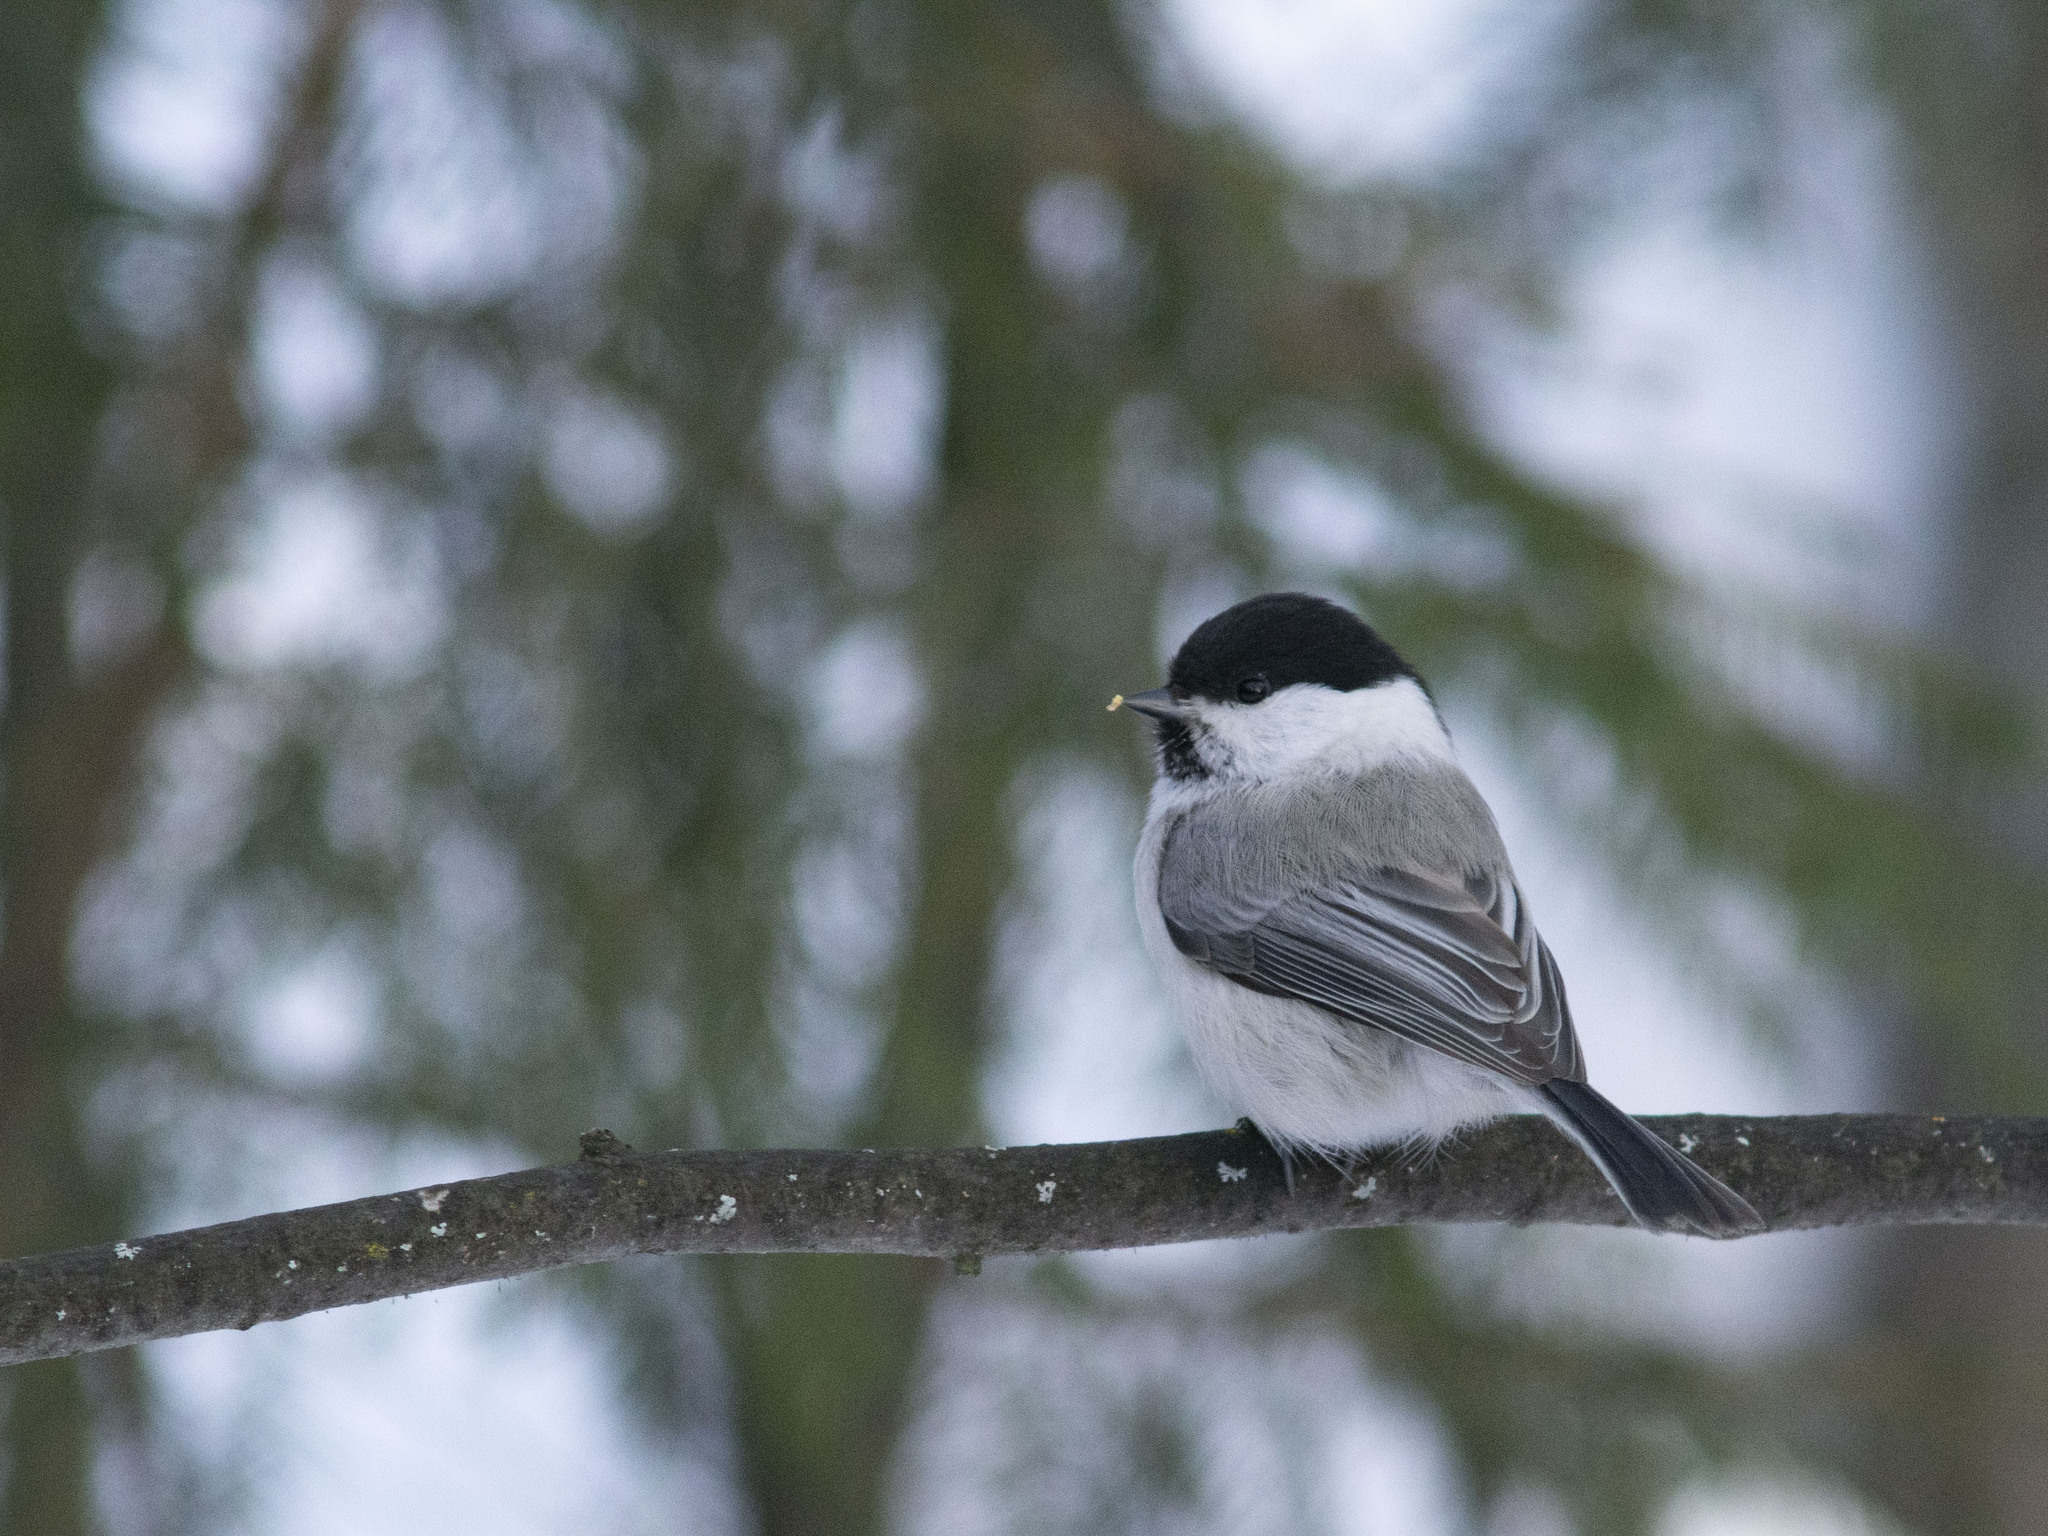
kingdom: Animalia
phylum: Chordata
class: Aves
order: Passeriformes
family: Paridae
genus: Poecile
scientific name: Poecile montanus
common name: Willow tit
